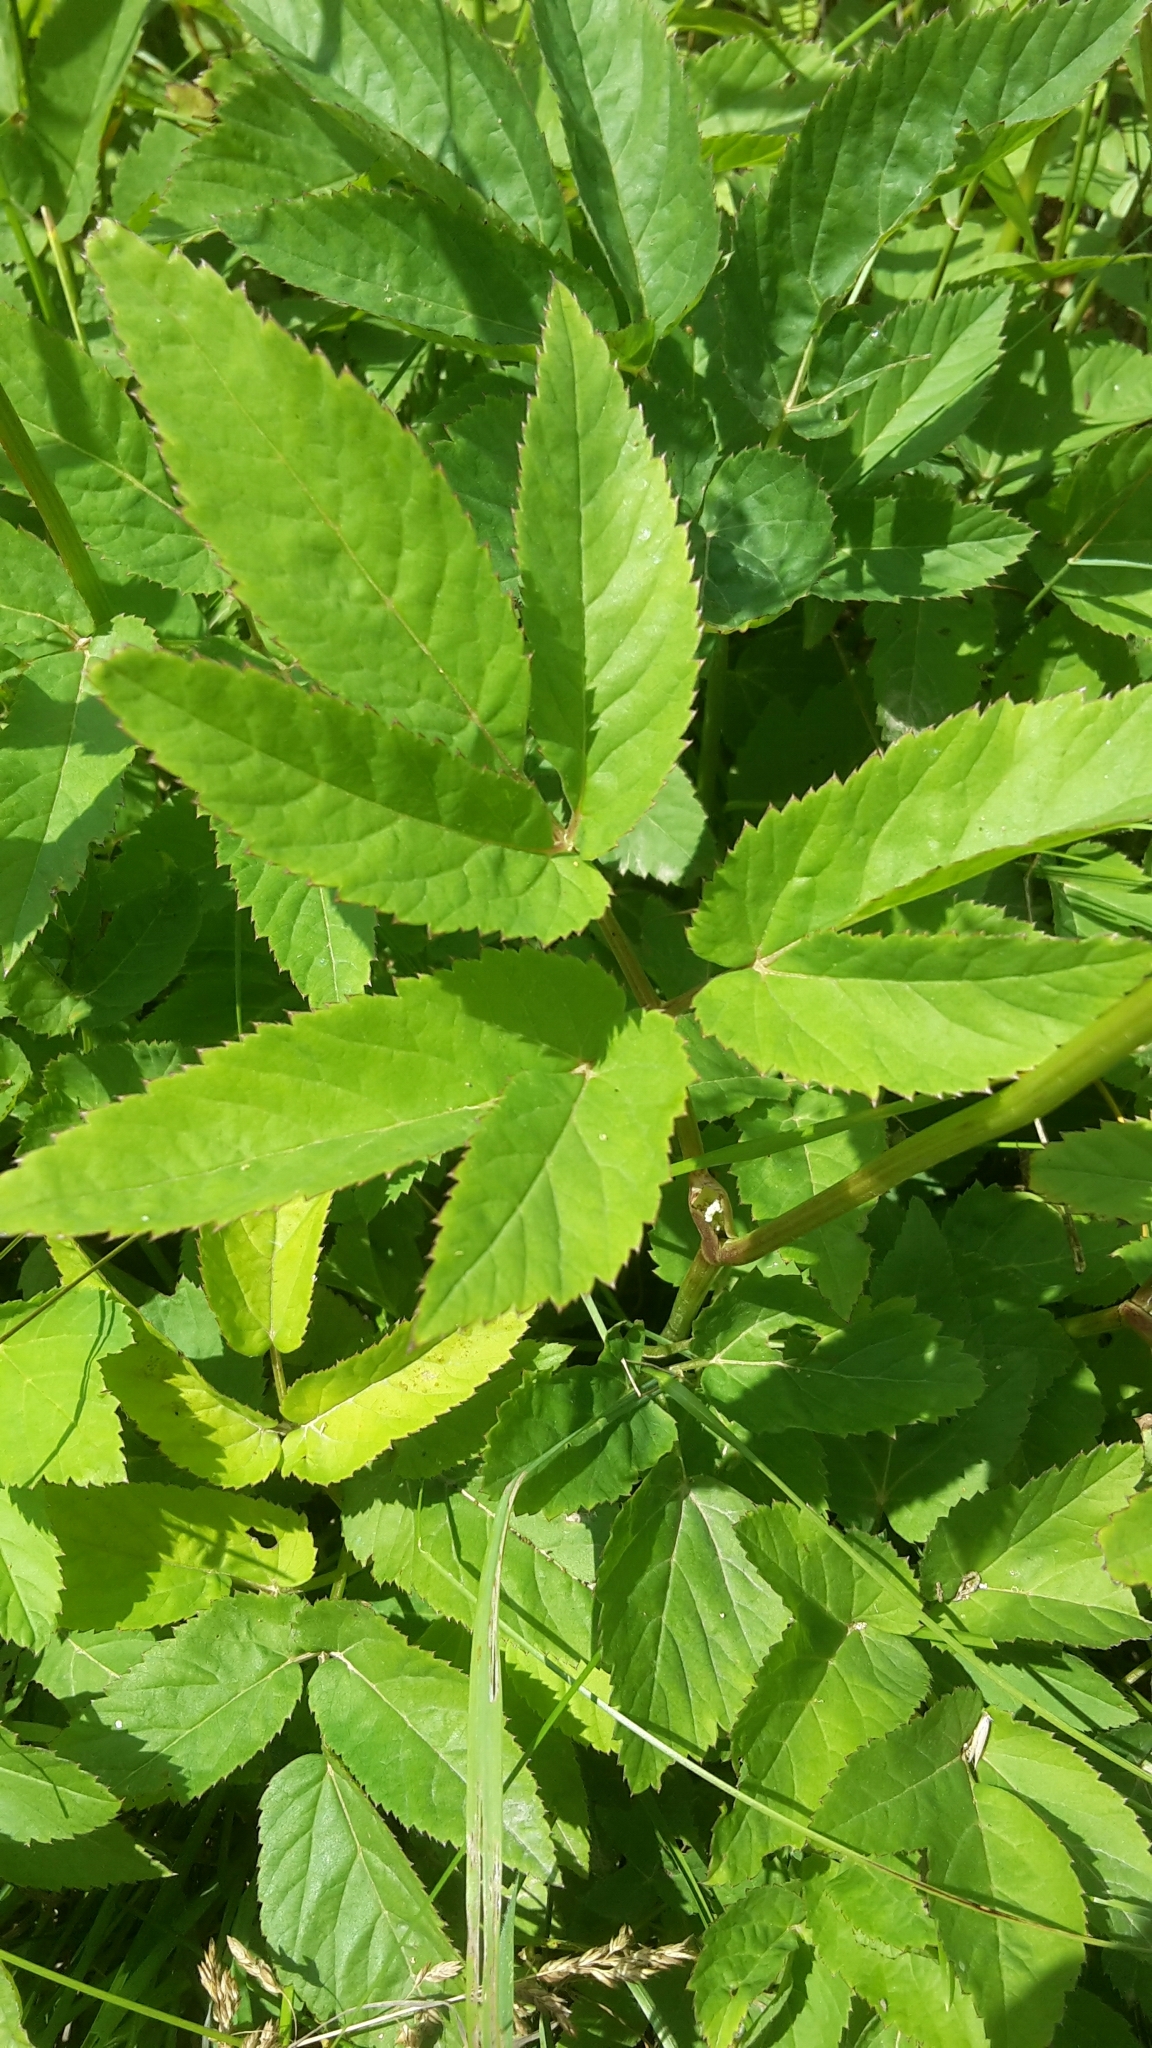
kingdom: Plantae
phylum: Tracheophyta
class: Magnoliopsida
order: Apiales
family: Apiaceae
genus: Aegopodium
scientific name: Aegopodium podagraria
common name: Ground-elder
